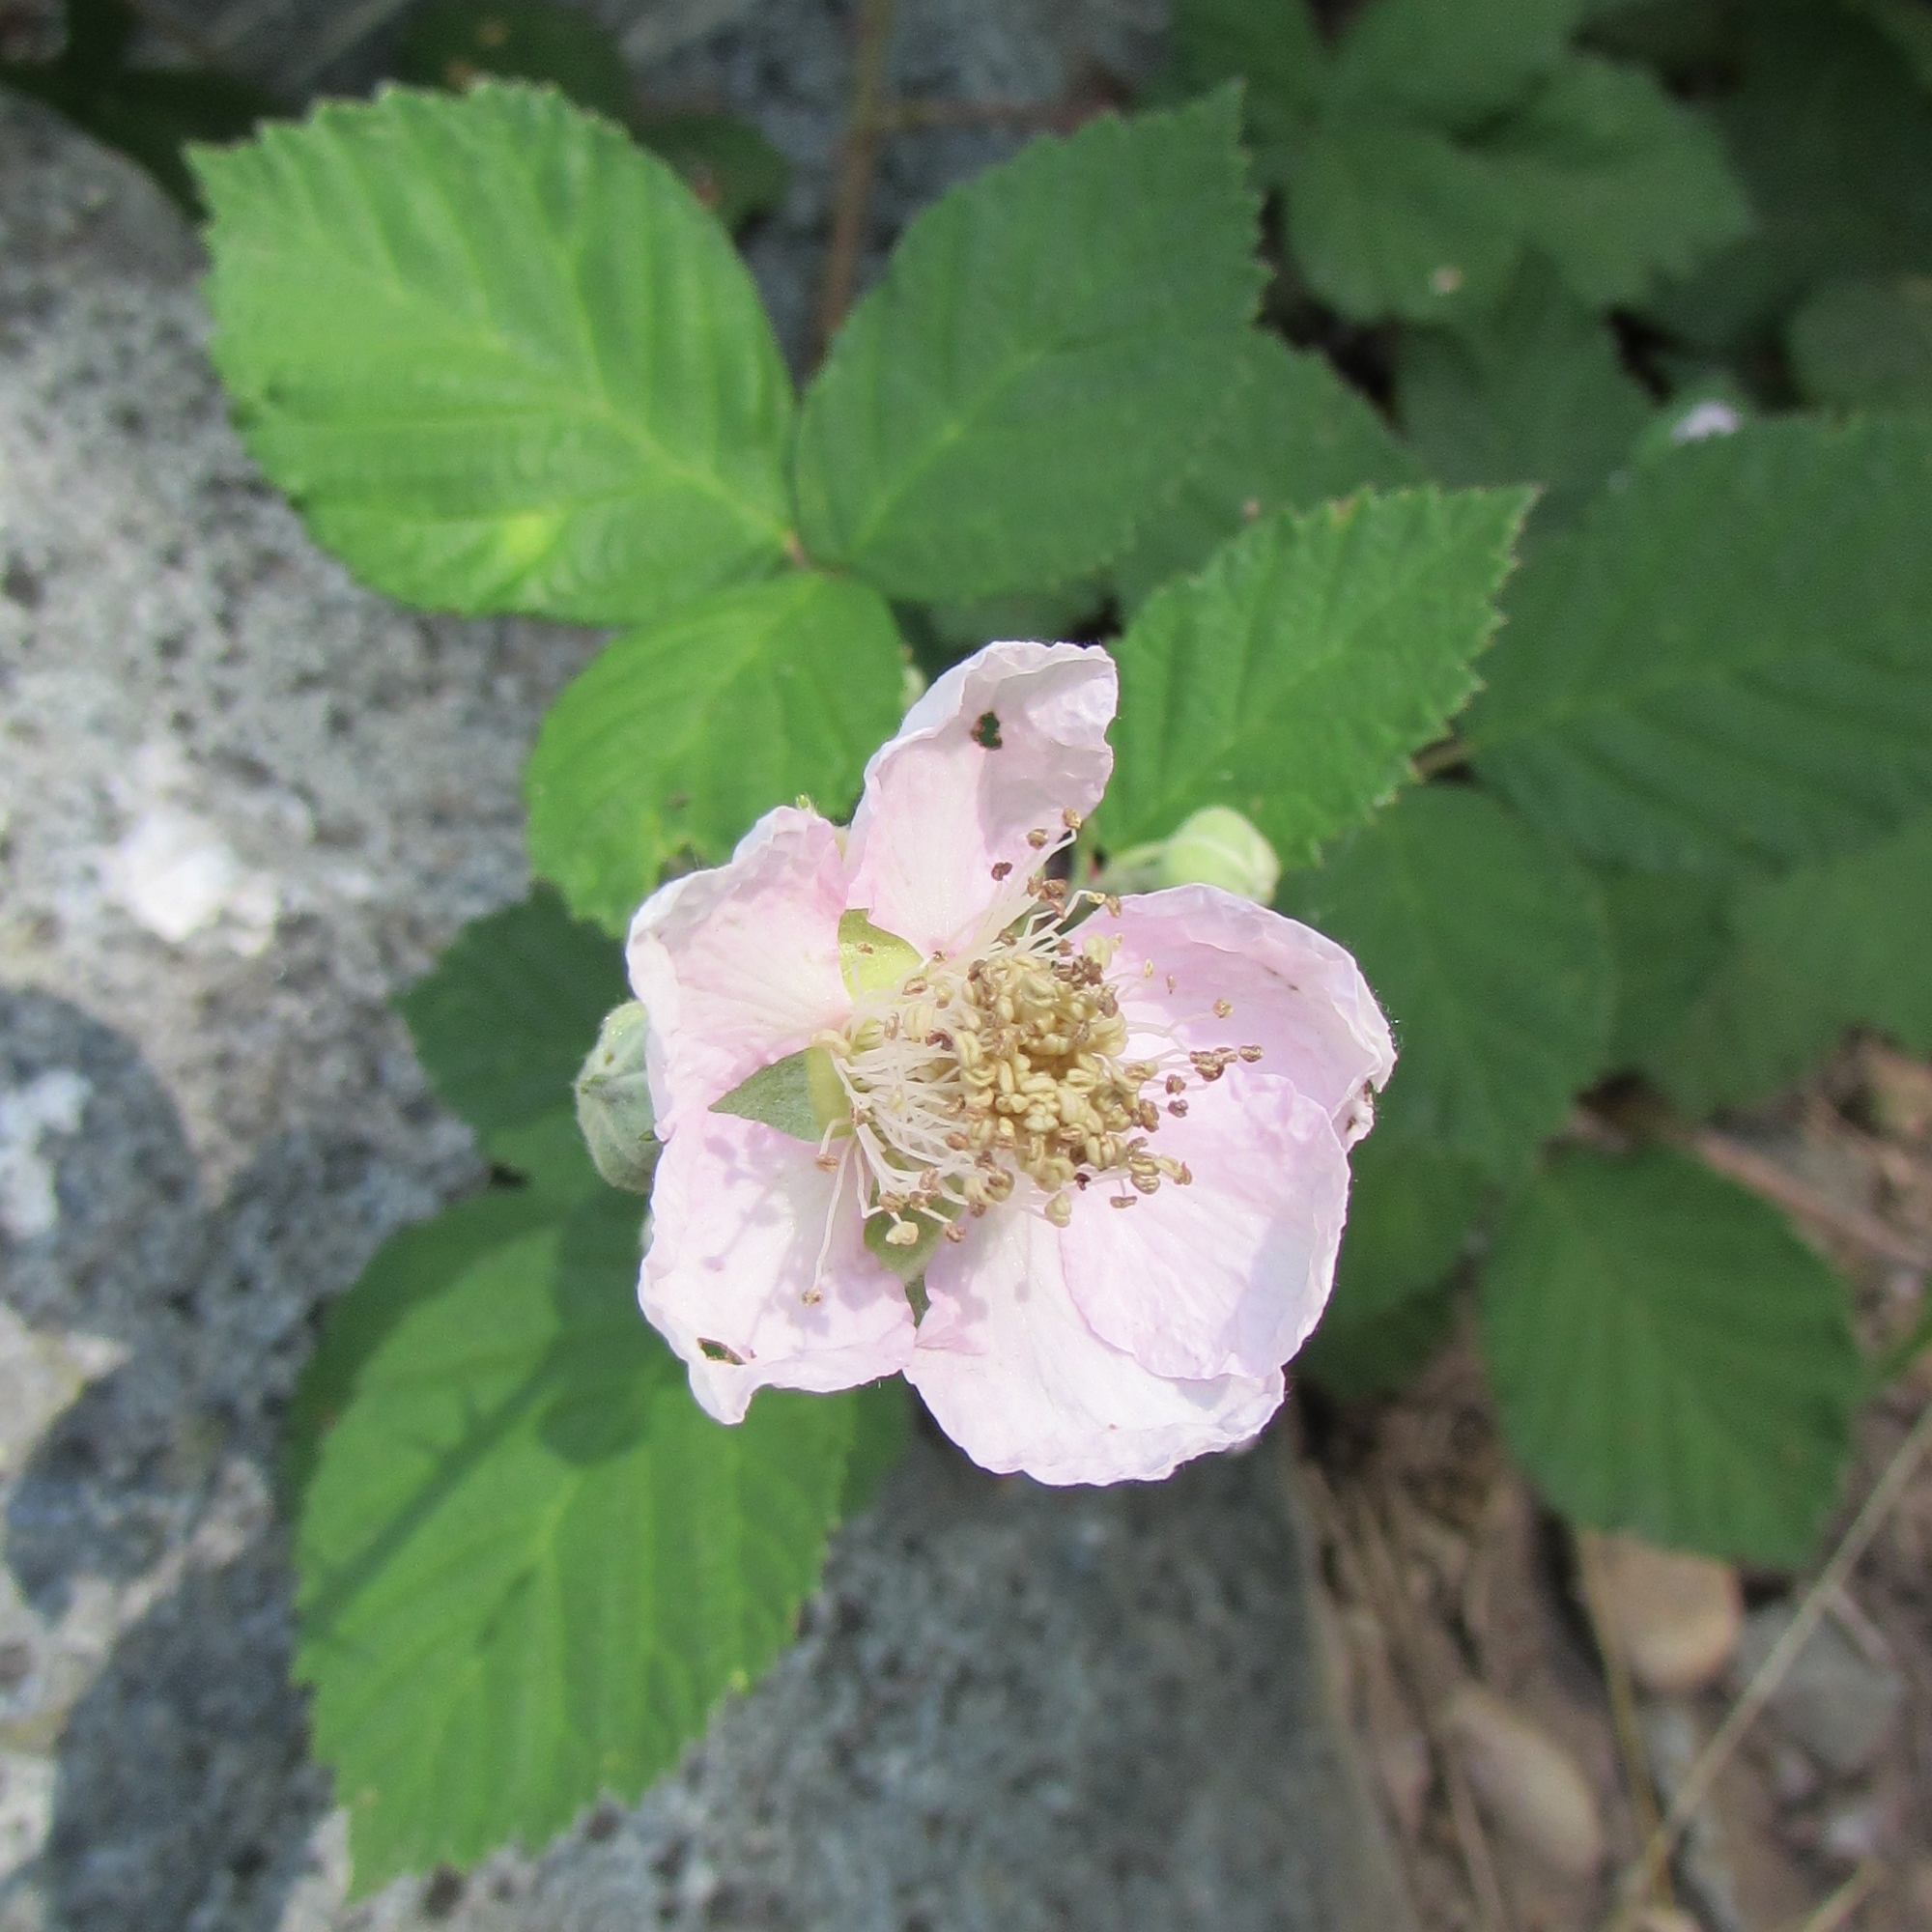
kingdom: Plantae
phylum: Tracheophyta
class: Magnoliopsida
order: Rosales
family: Rosaceae
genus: Rubus
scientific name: Rubus armeniacus
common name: Himalayan blackberry
